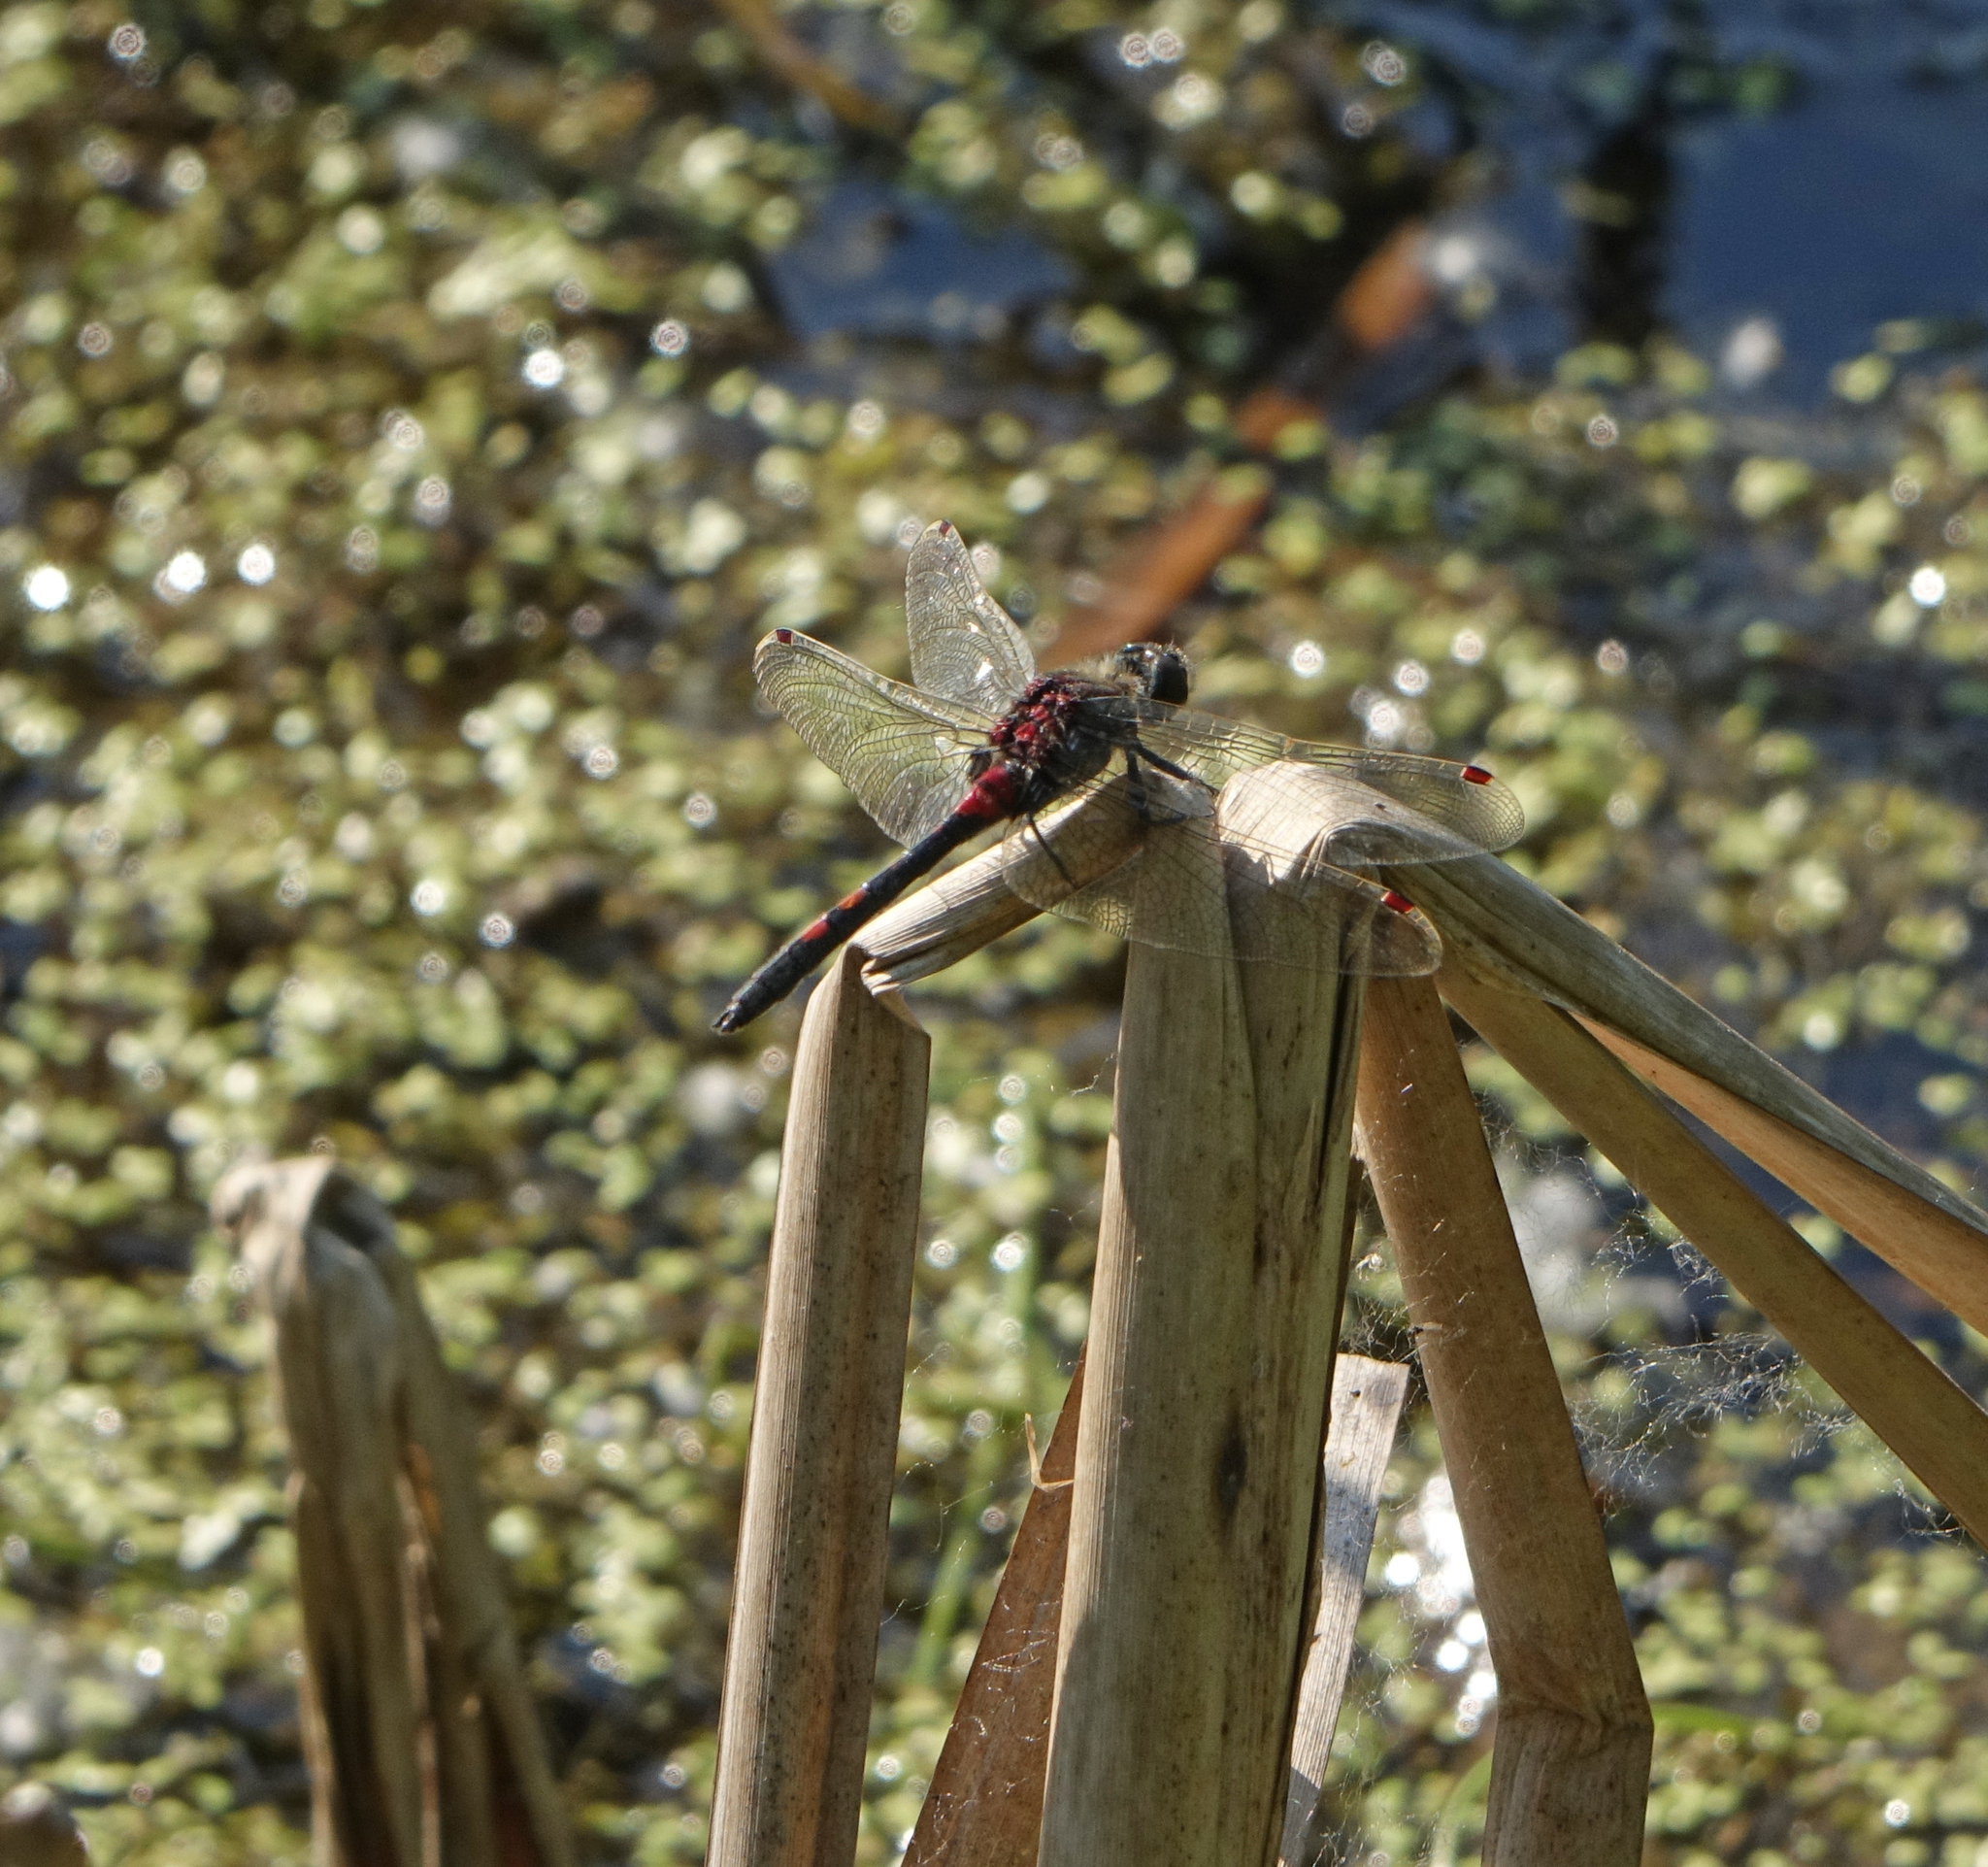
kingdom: Animalia
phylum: Arthropoda
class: Insecta
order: Odonata
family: Libellulidae
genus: Leucorrhinia
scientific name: Leucorrhinia rubicunda
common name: Ruby whiteface
